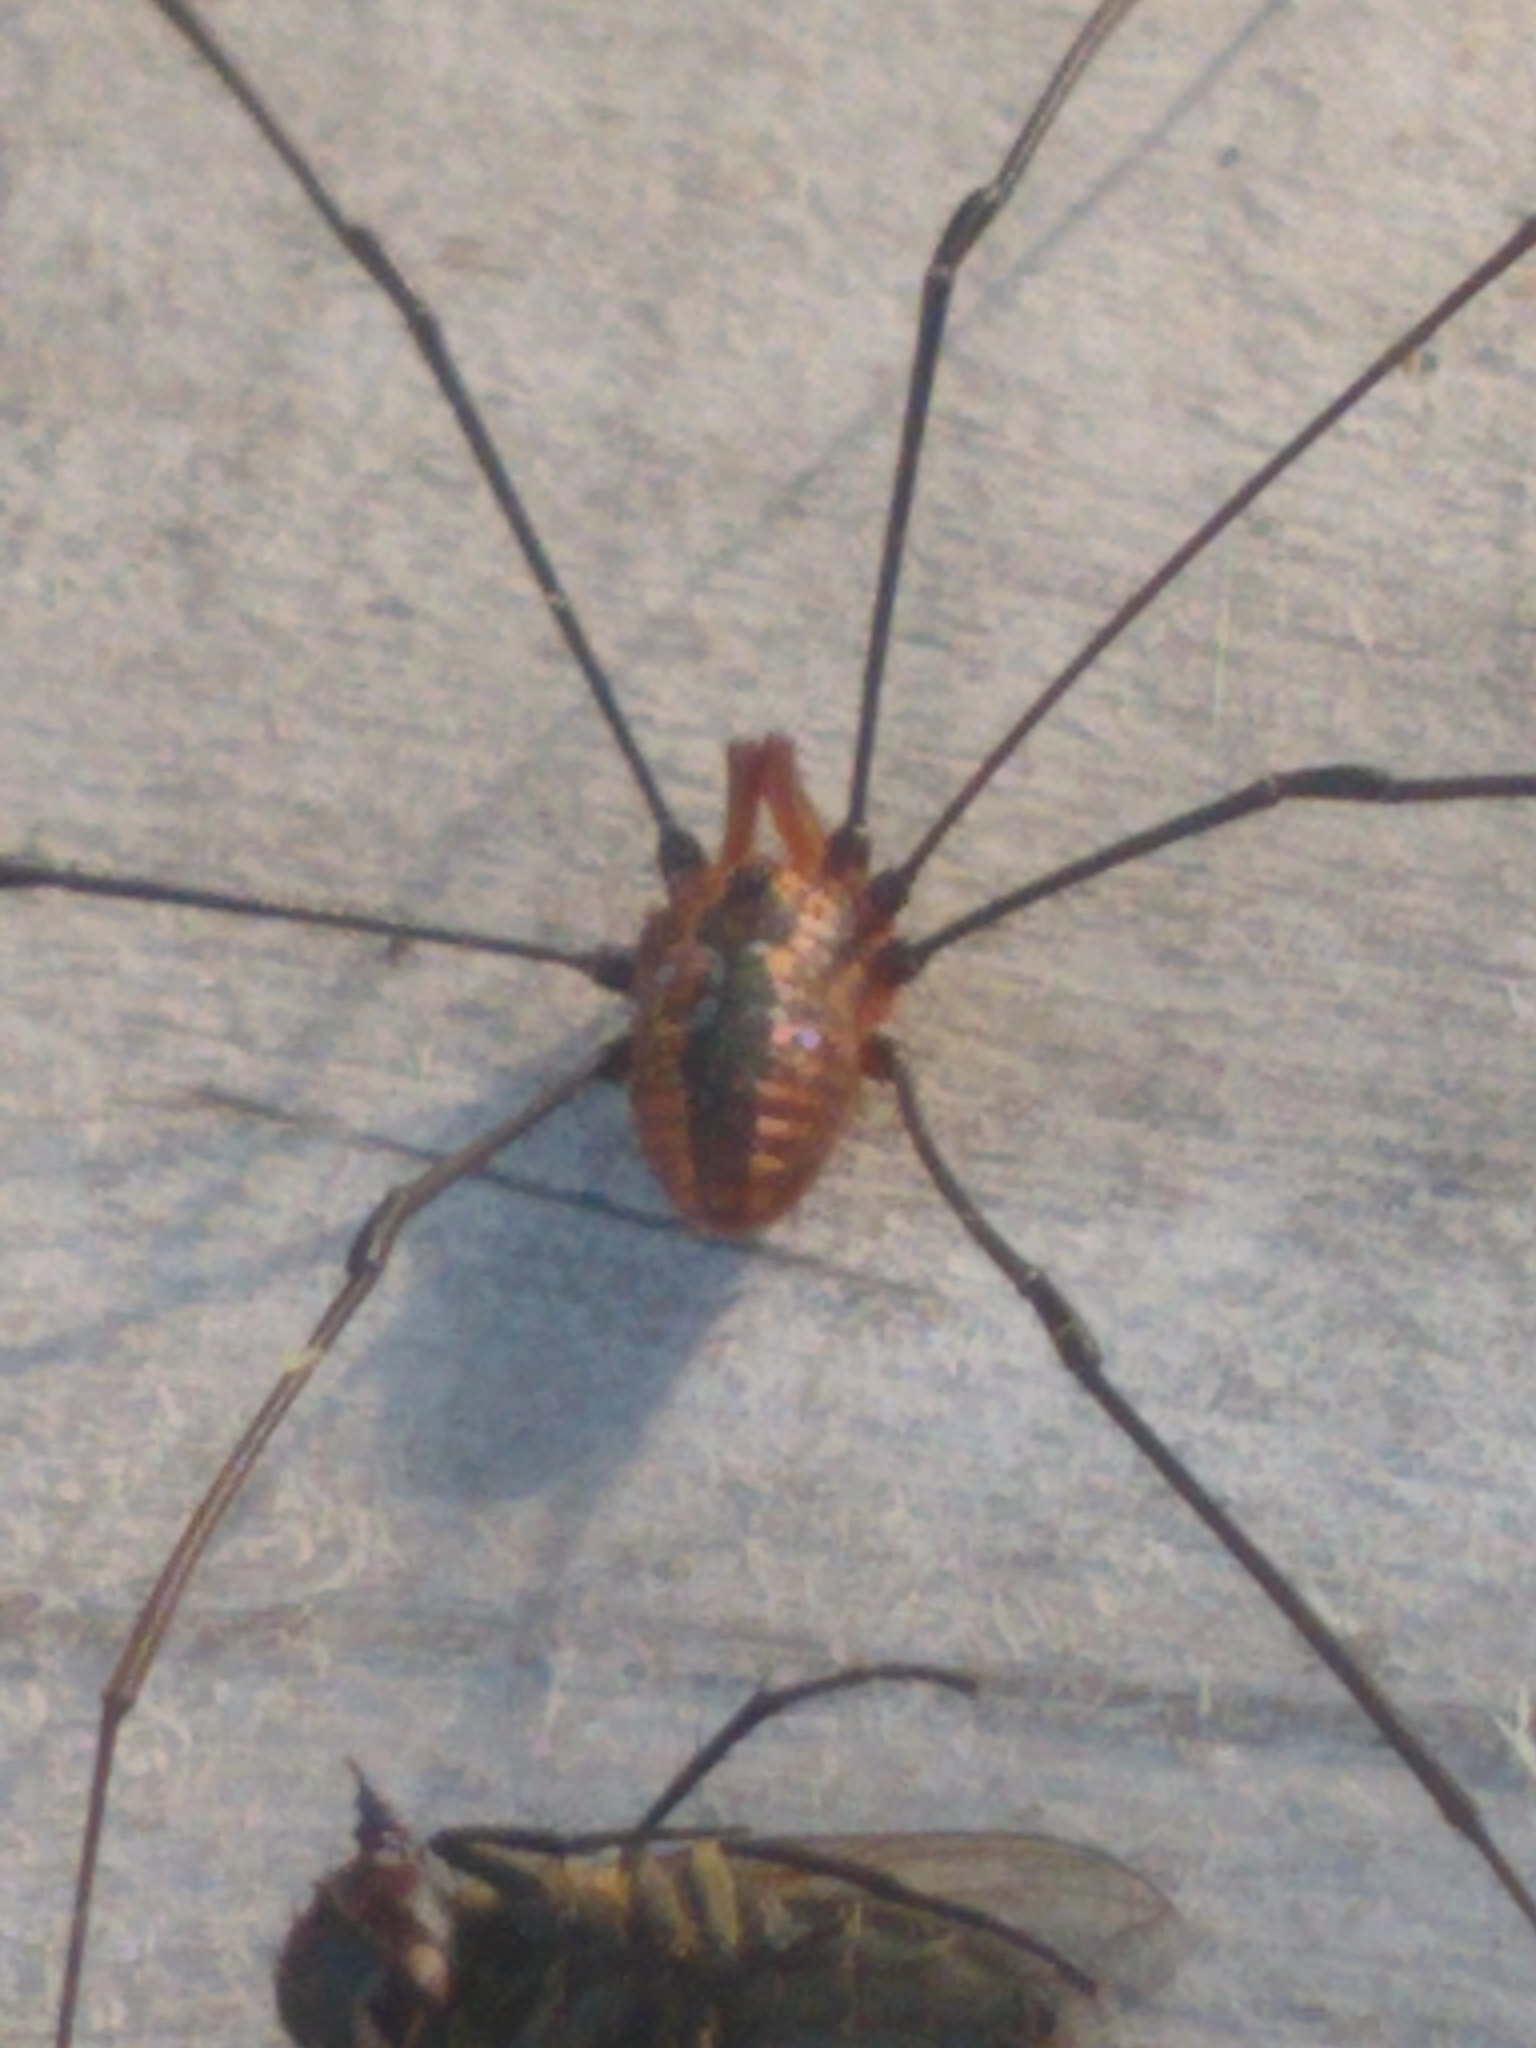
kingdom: Animalia
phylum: Arthropoda
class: Arachnida
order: Opiliones
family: Sclerosomatidae
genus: Leiobunum
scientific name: Leiobunum vittatum
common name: Eastern harvestman
